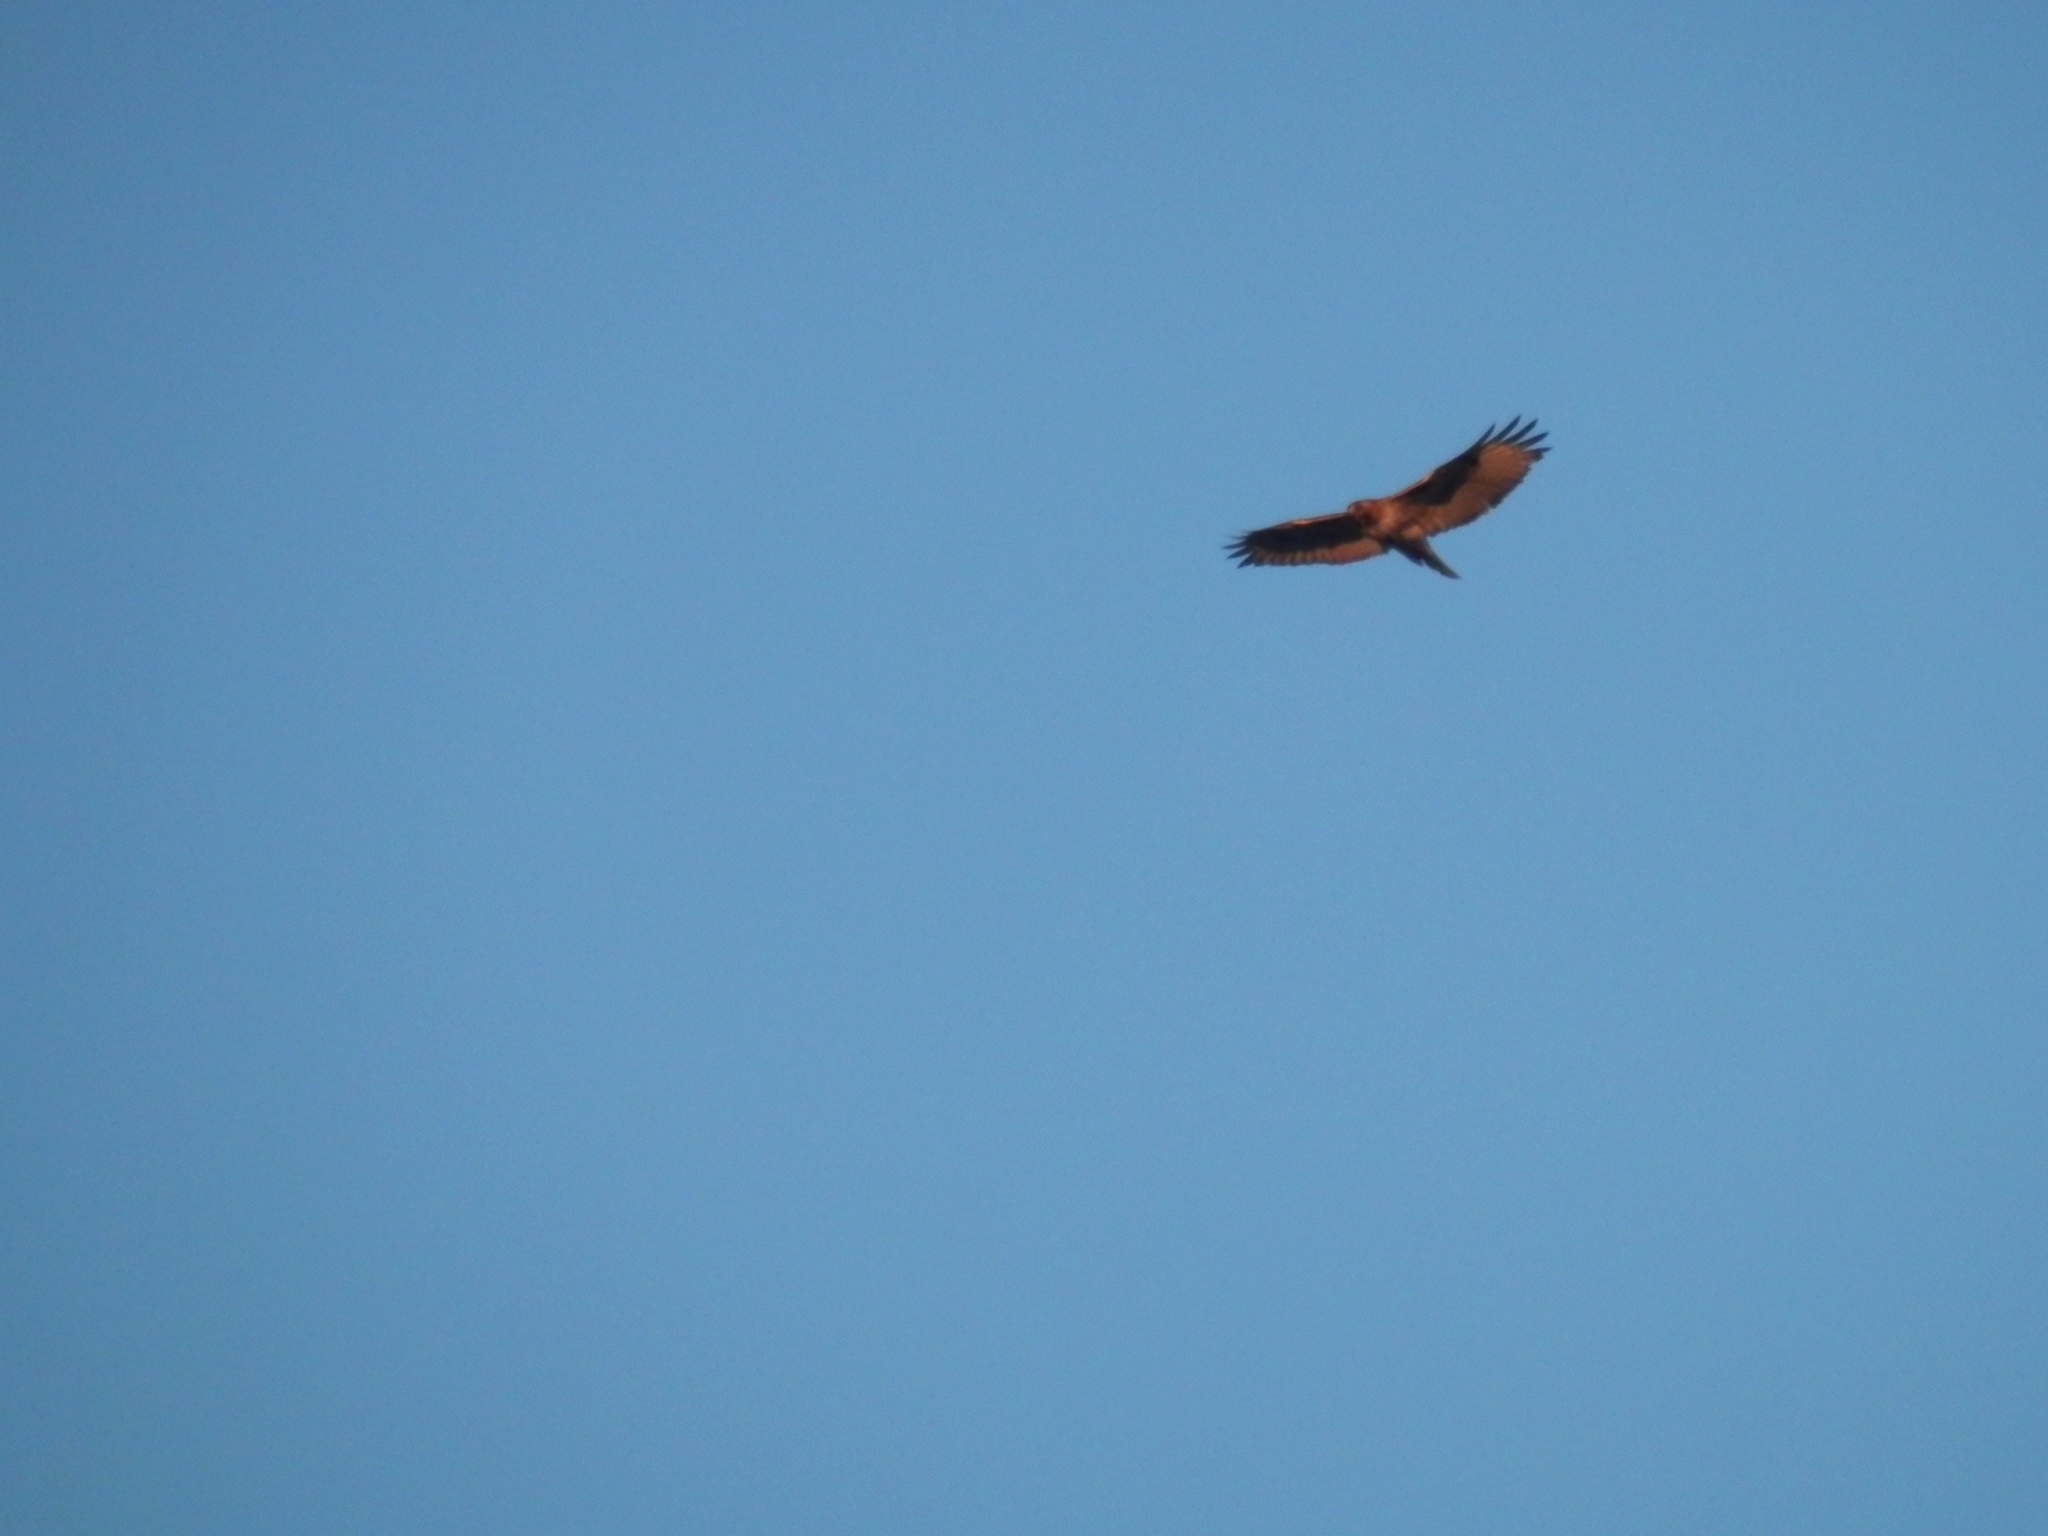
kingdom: Animalia
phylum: Chordata
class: Aves
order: Accipitriformes
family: Accipitridae
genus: Buteo
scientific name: Buteo jamaicensis
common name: Red-tailed hawk
